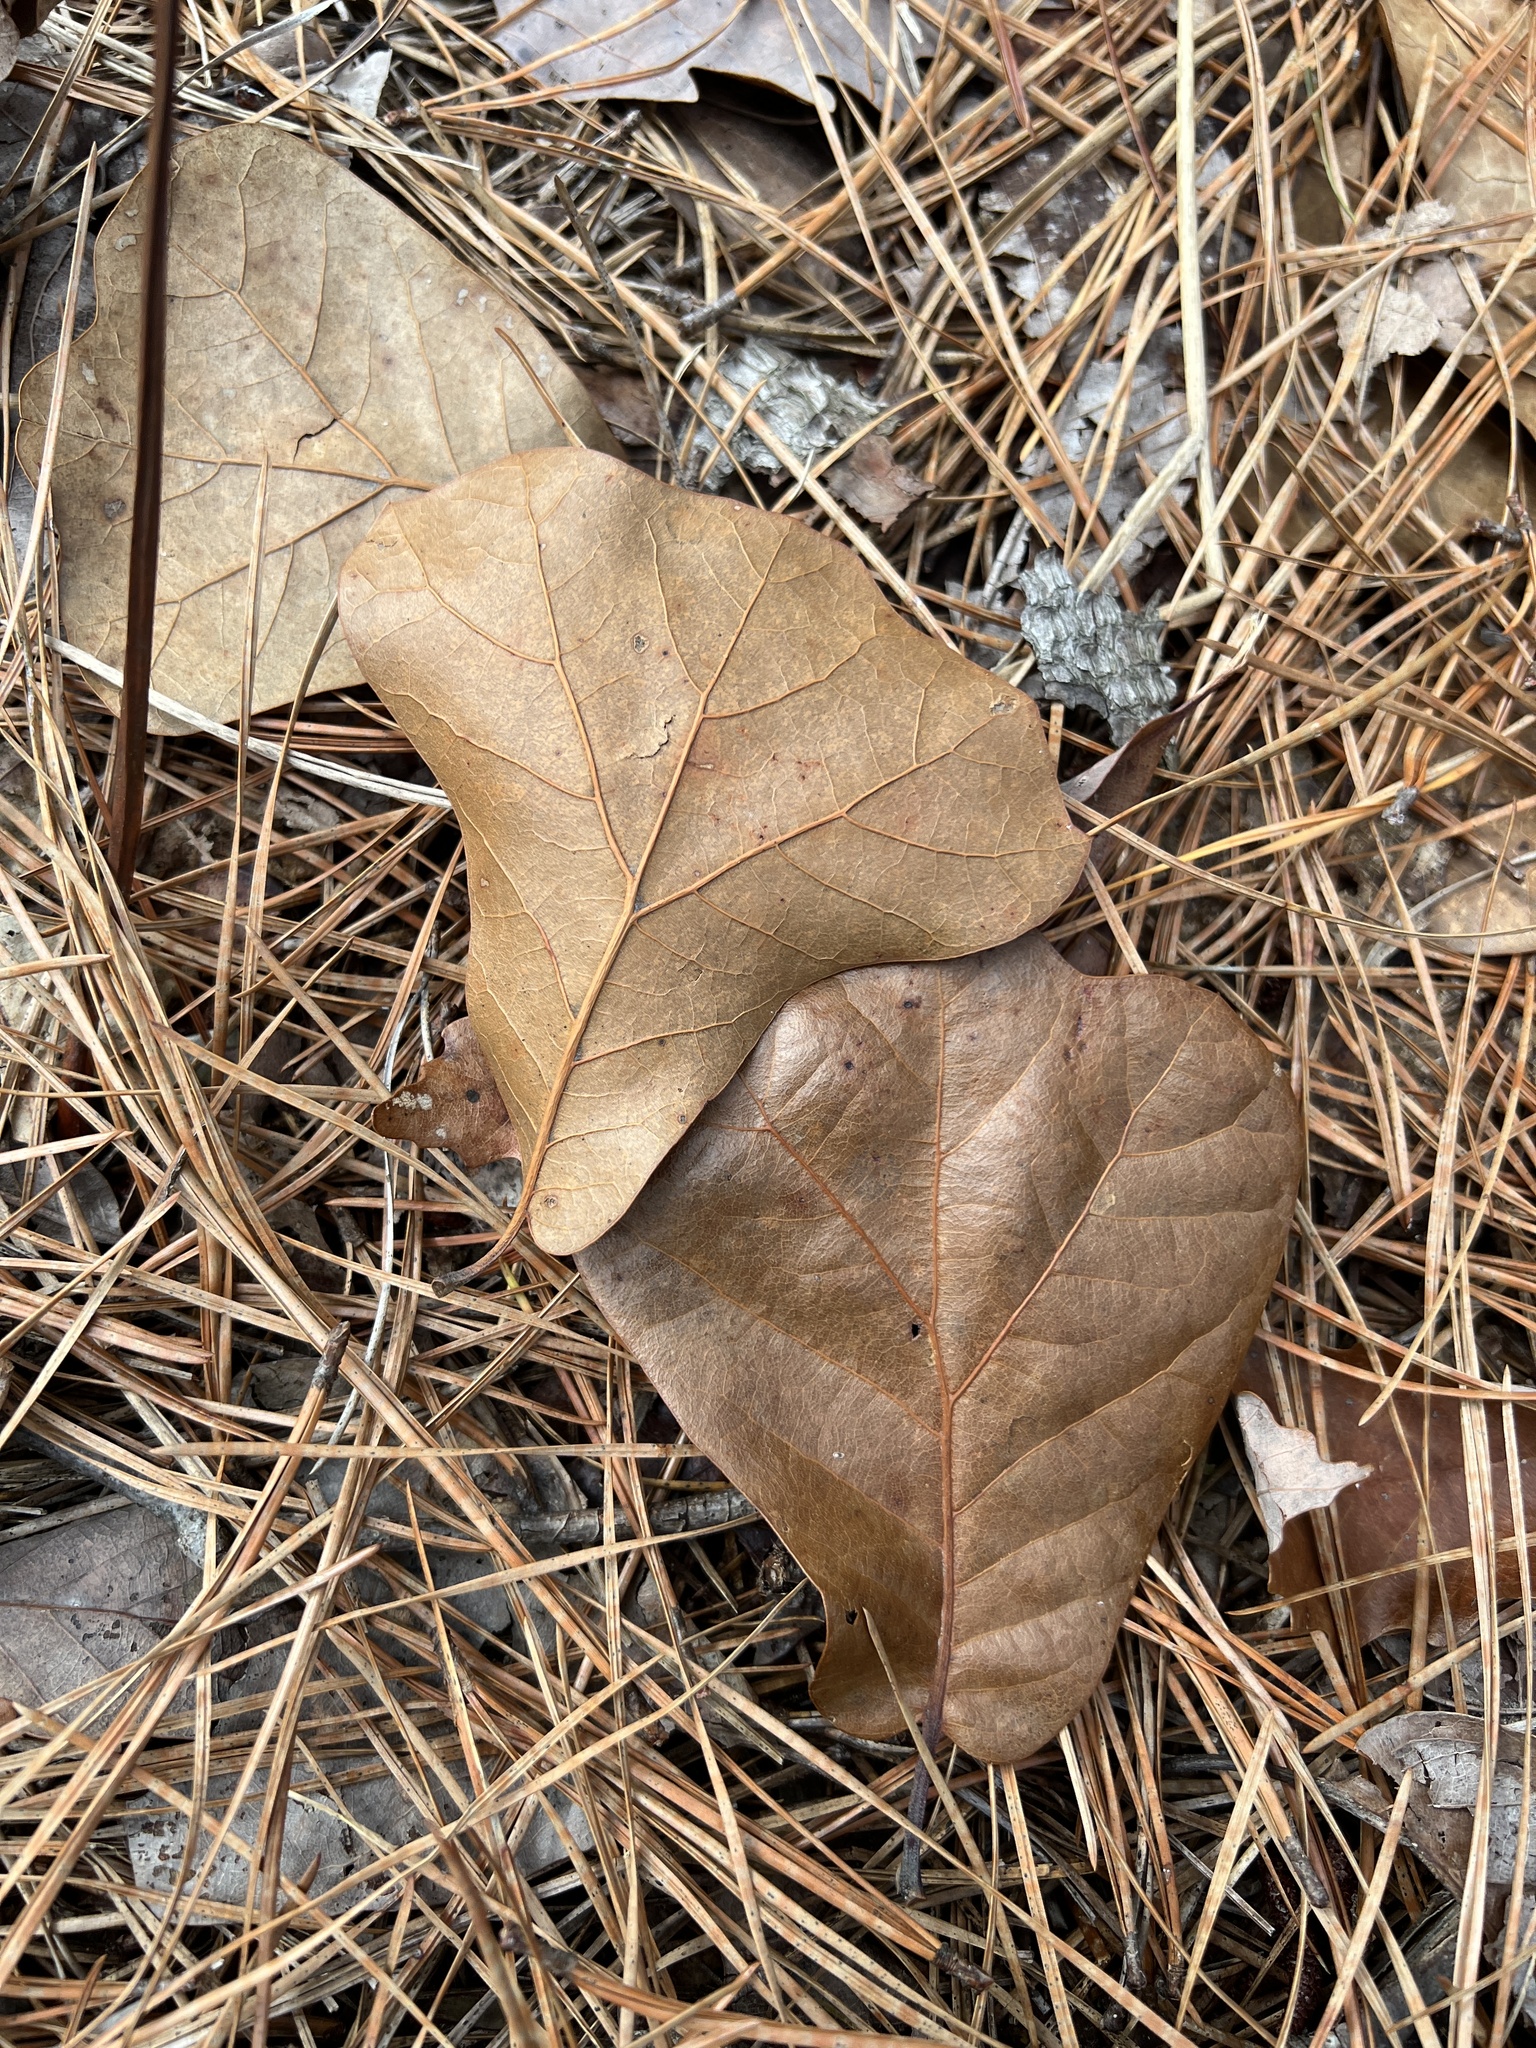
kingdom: Plantae
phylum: Tracheophyta
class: Magnoliopsida
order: Fagales
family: Fagaceae
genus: Quercus
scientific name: Quercus marilandica
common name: Blackjack oak
